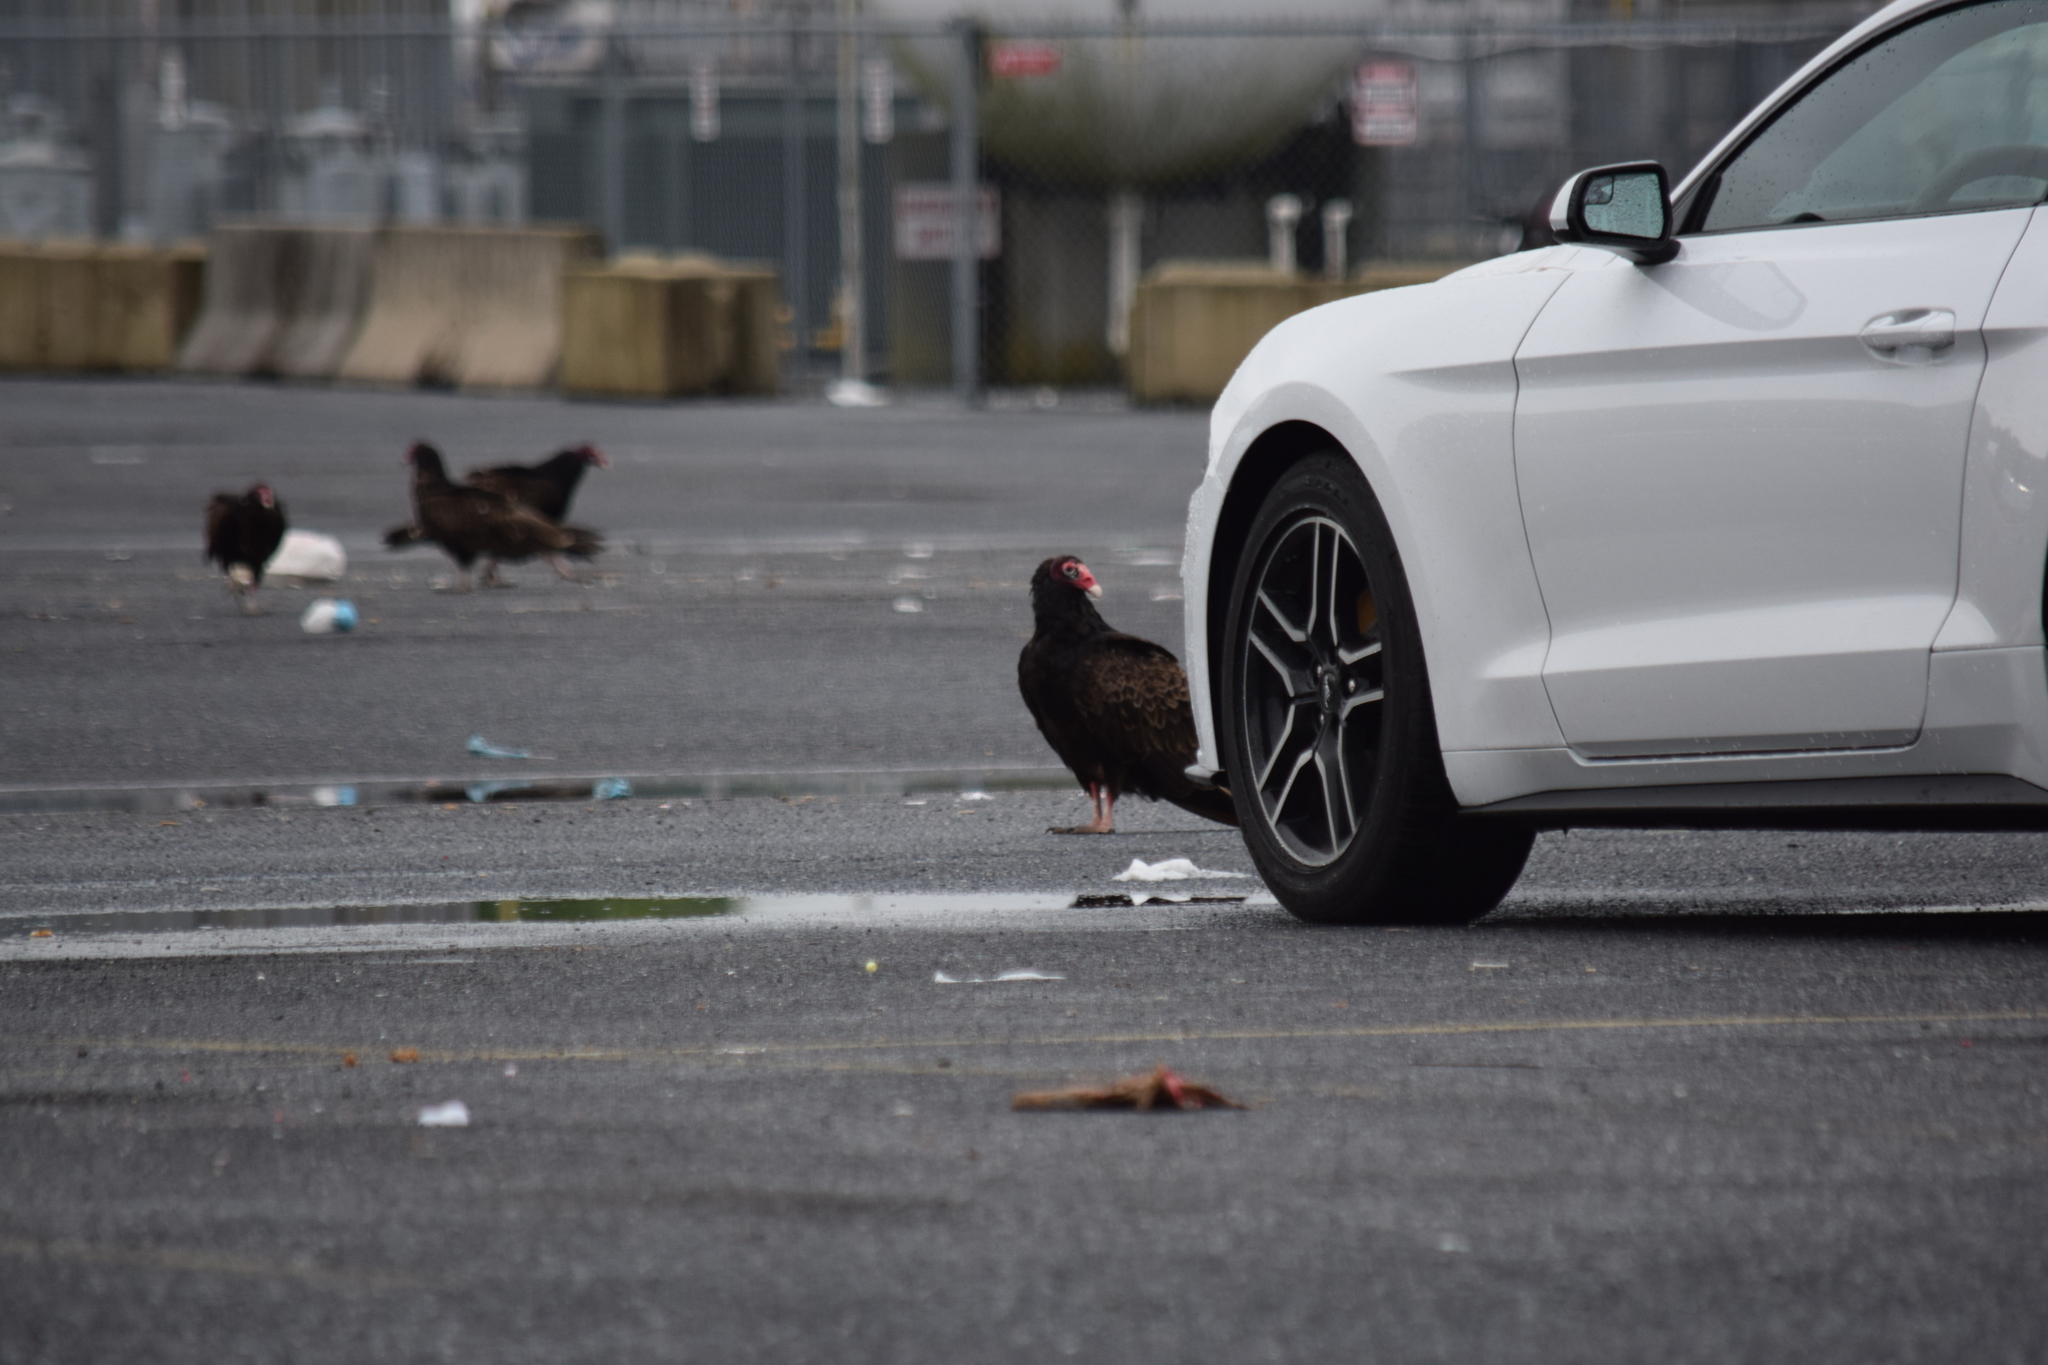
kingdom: Animalia
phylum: Chordata
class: Aves
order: Accipitriformes
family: Cathartidae
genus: Cathartes
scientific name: Cathartes aura
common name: Turkey vulture
